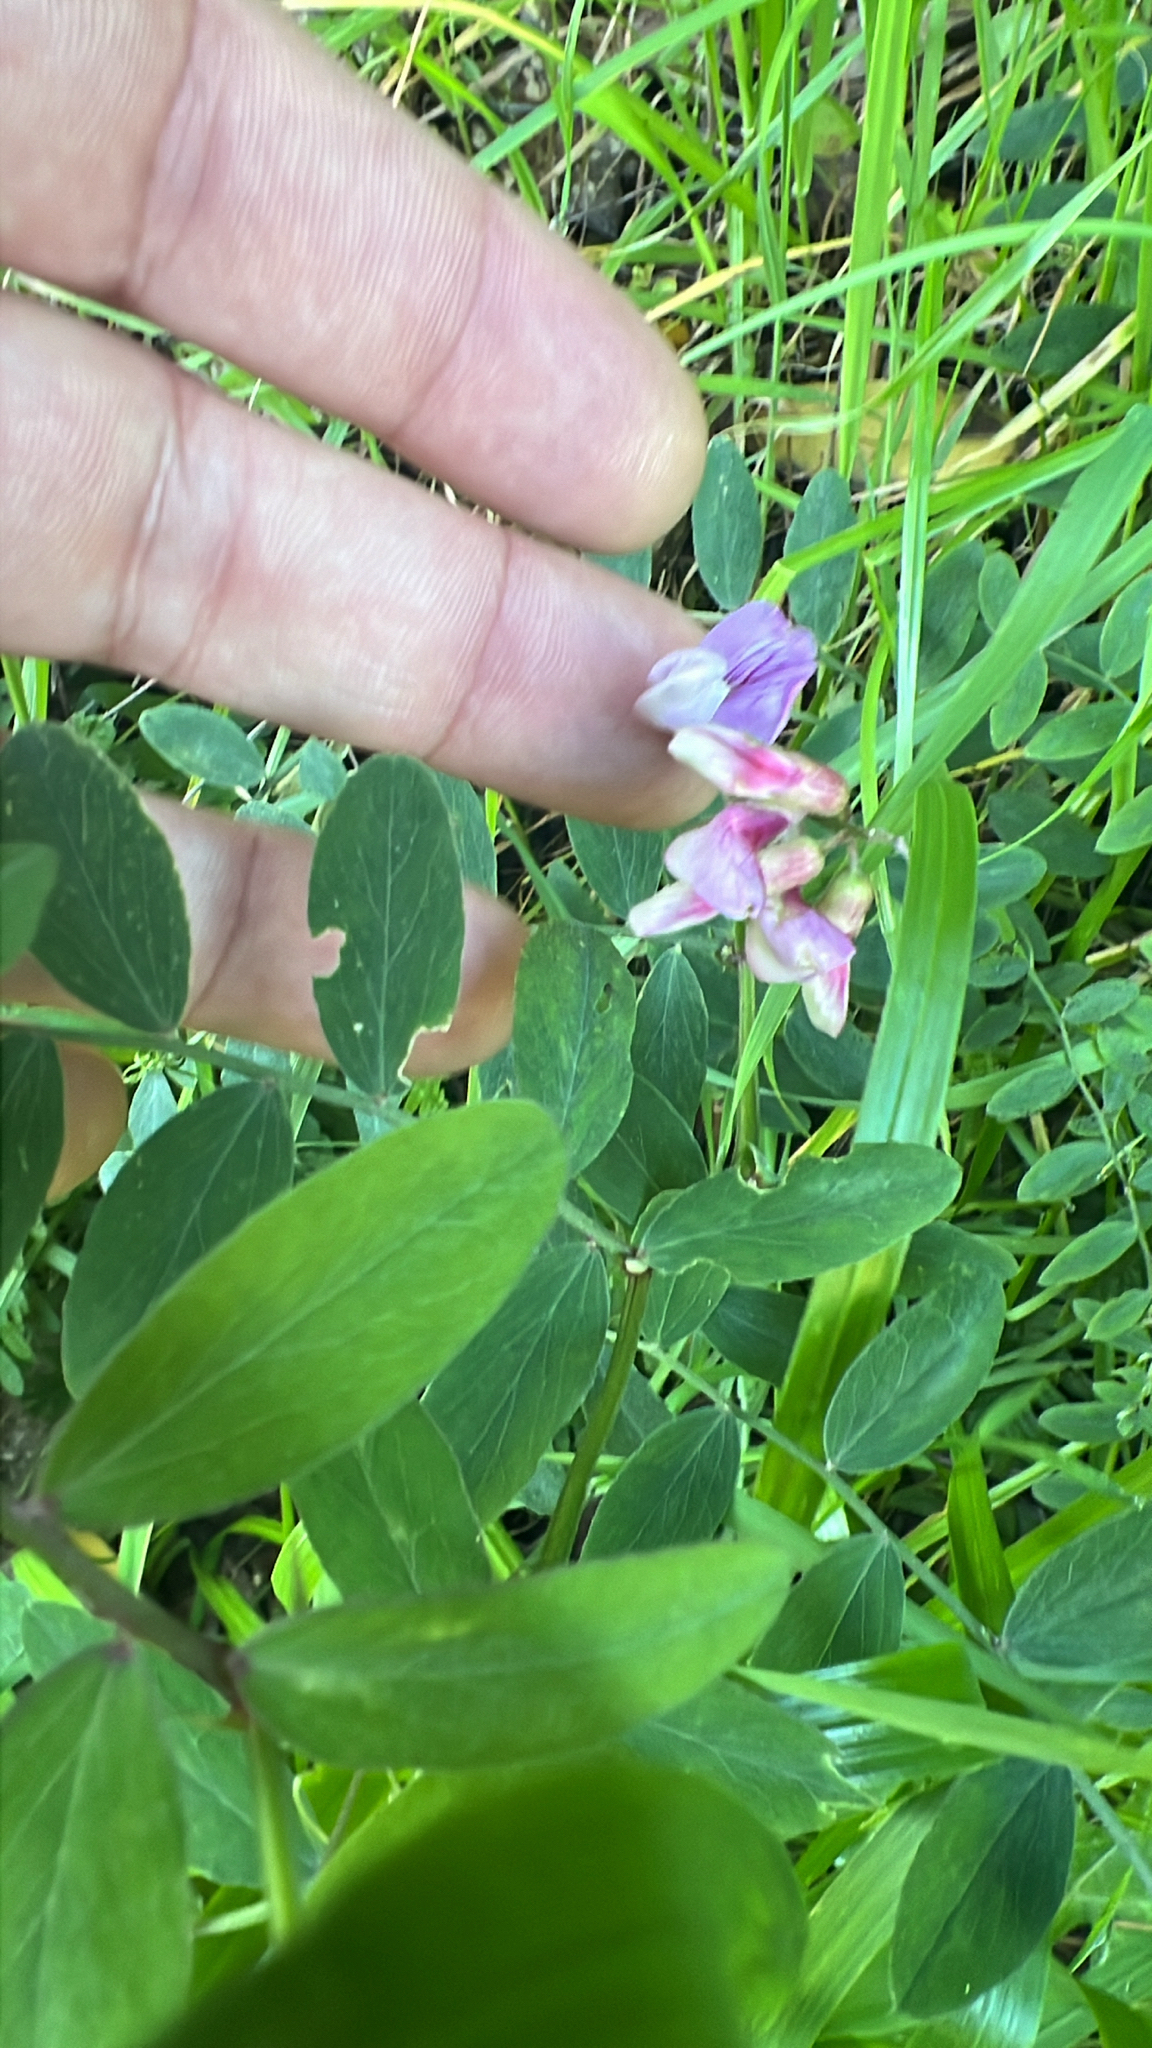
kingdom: Plantae
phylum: Tracheophyta
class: Magnoliopsida
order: Fabales
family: Fabaceae
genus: Lathyrus
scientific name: Lathyrus vestitus
